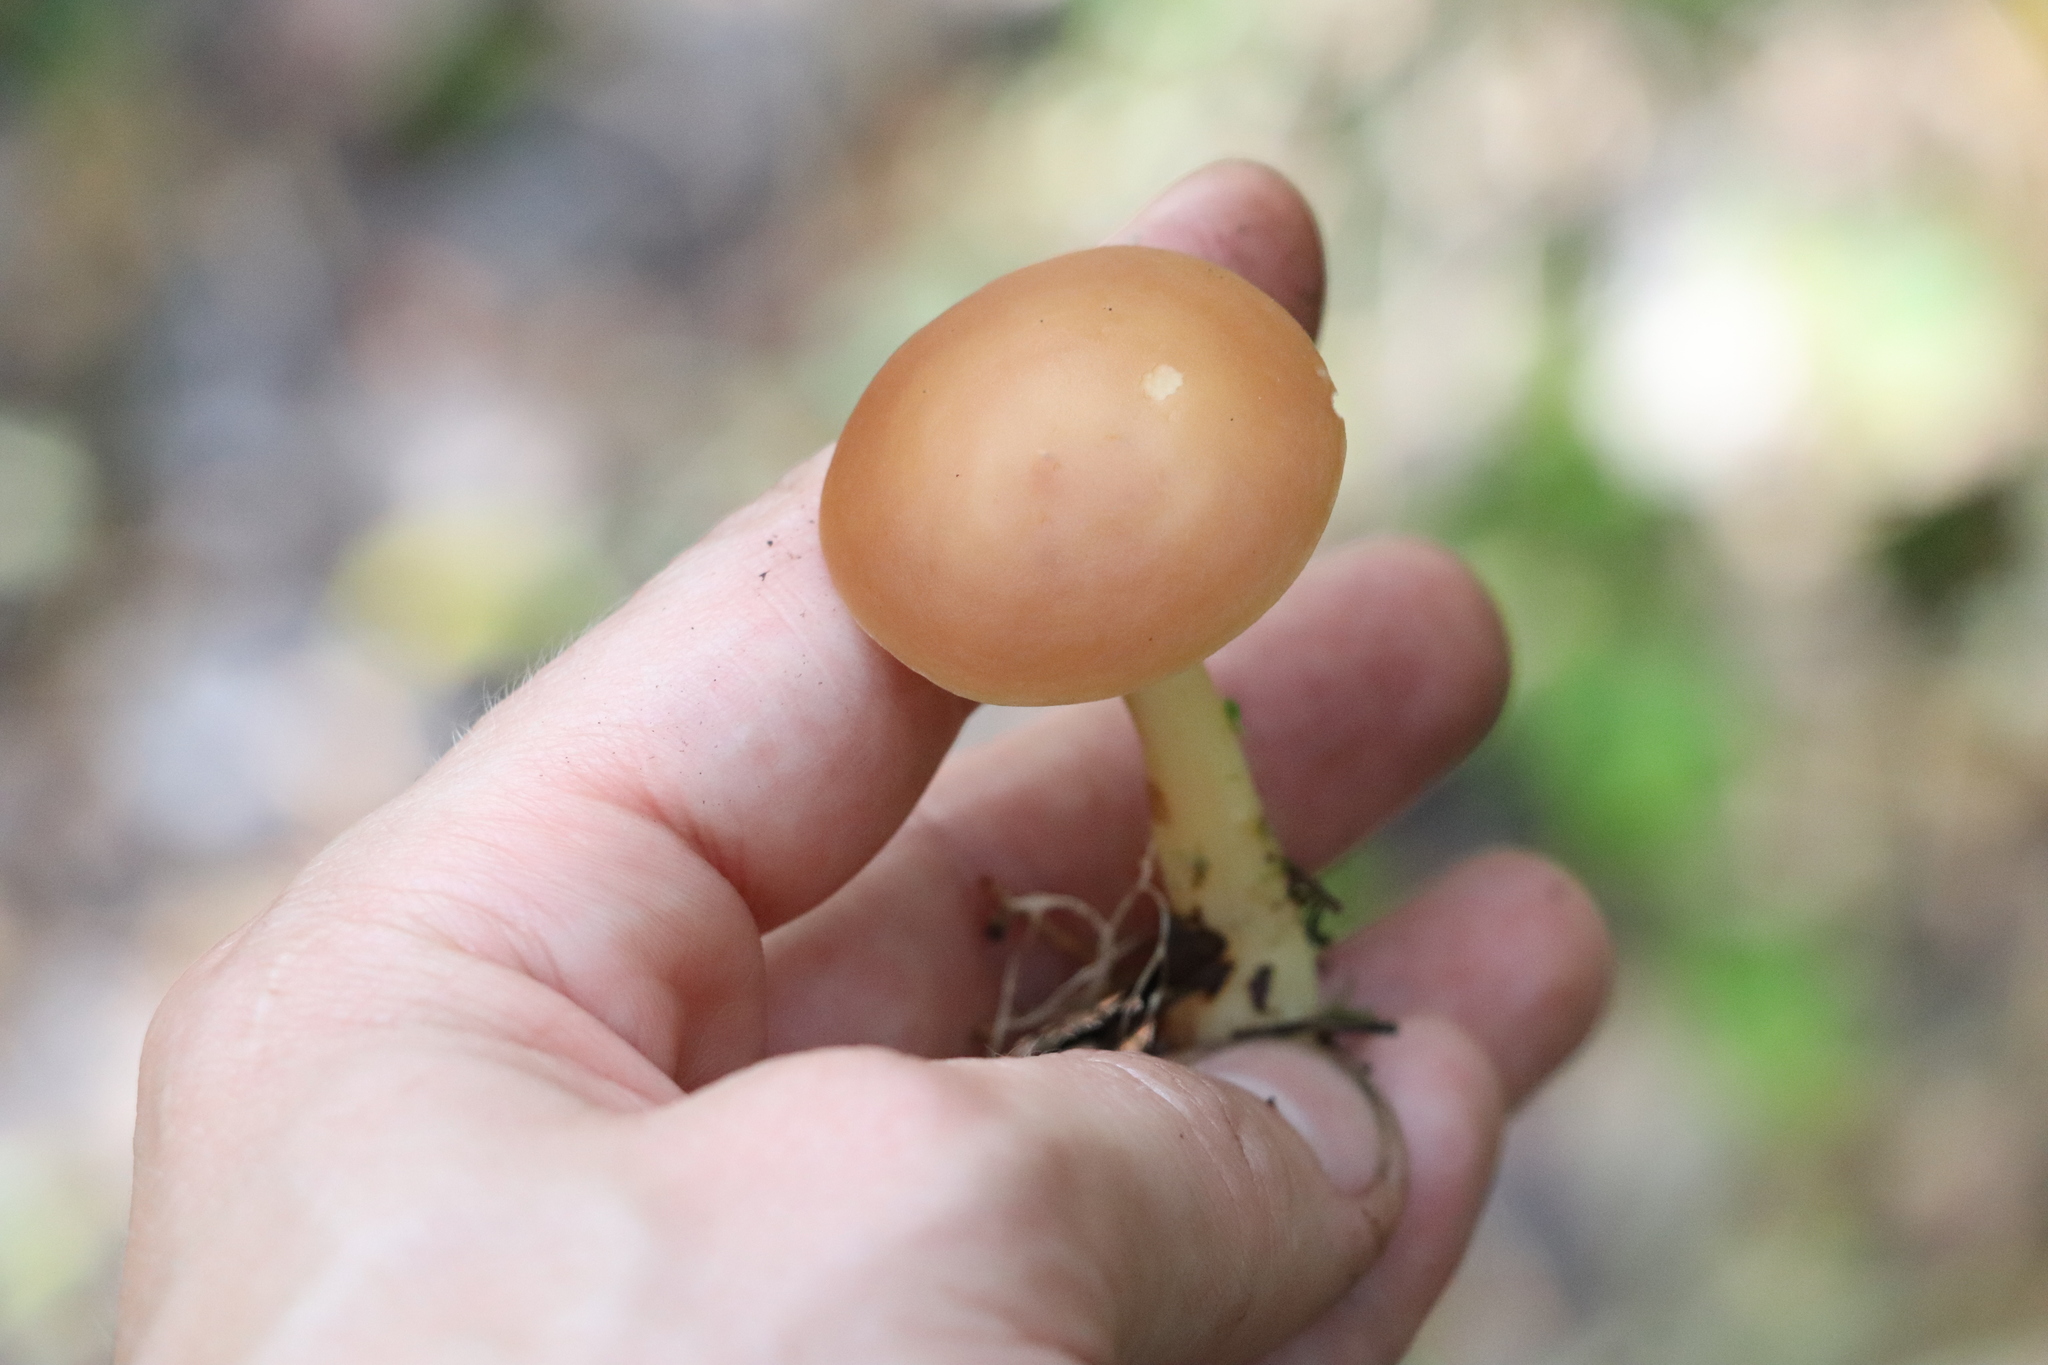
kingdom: Fungi
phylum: Basidiomycota
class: Agaricomycetes
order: Agaricales
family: Omphalotaceae
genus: Gymnopus
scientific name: Gymnopus aquosus
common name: Watery toughshank
